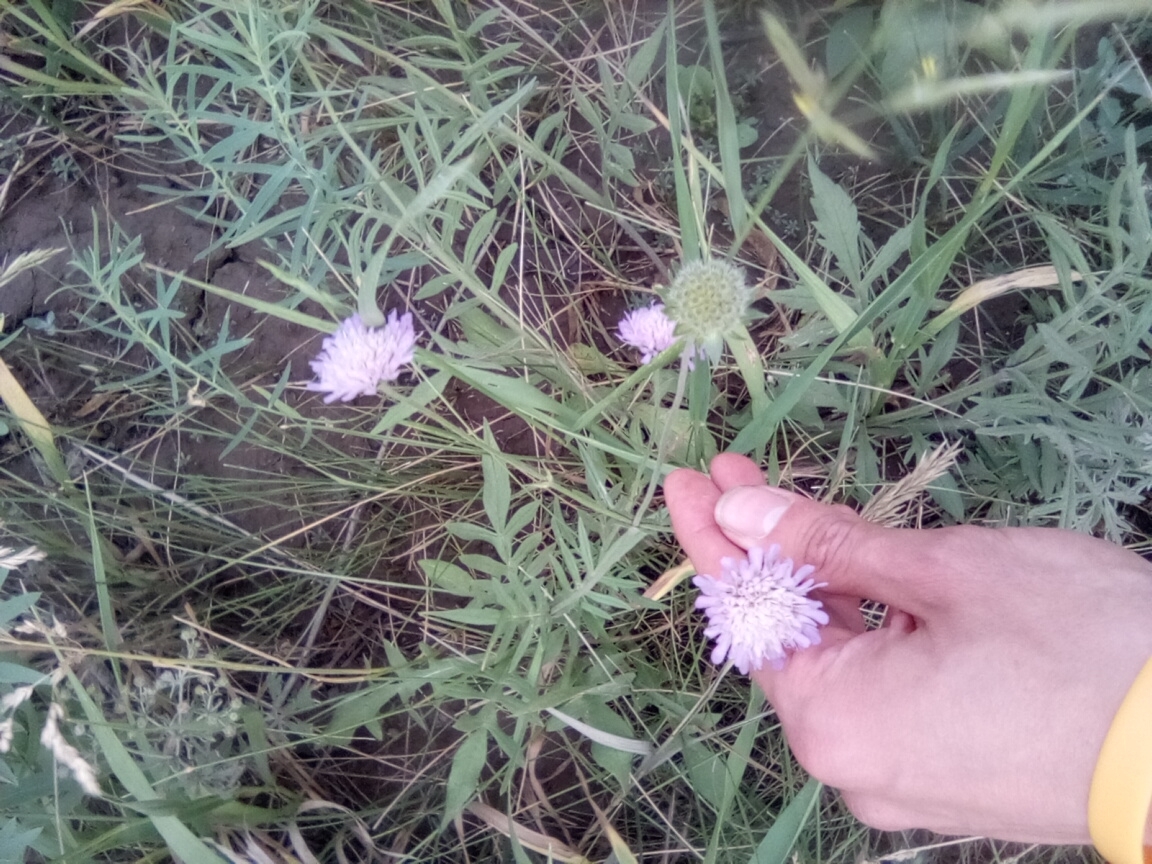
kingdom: Plantae
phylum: Tracheophyta
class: Magnoliopsida
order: Dipsacales
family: Caprifoliaceae
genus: Knautia
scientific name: Knautia arvensis
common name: Field scabiosa
